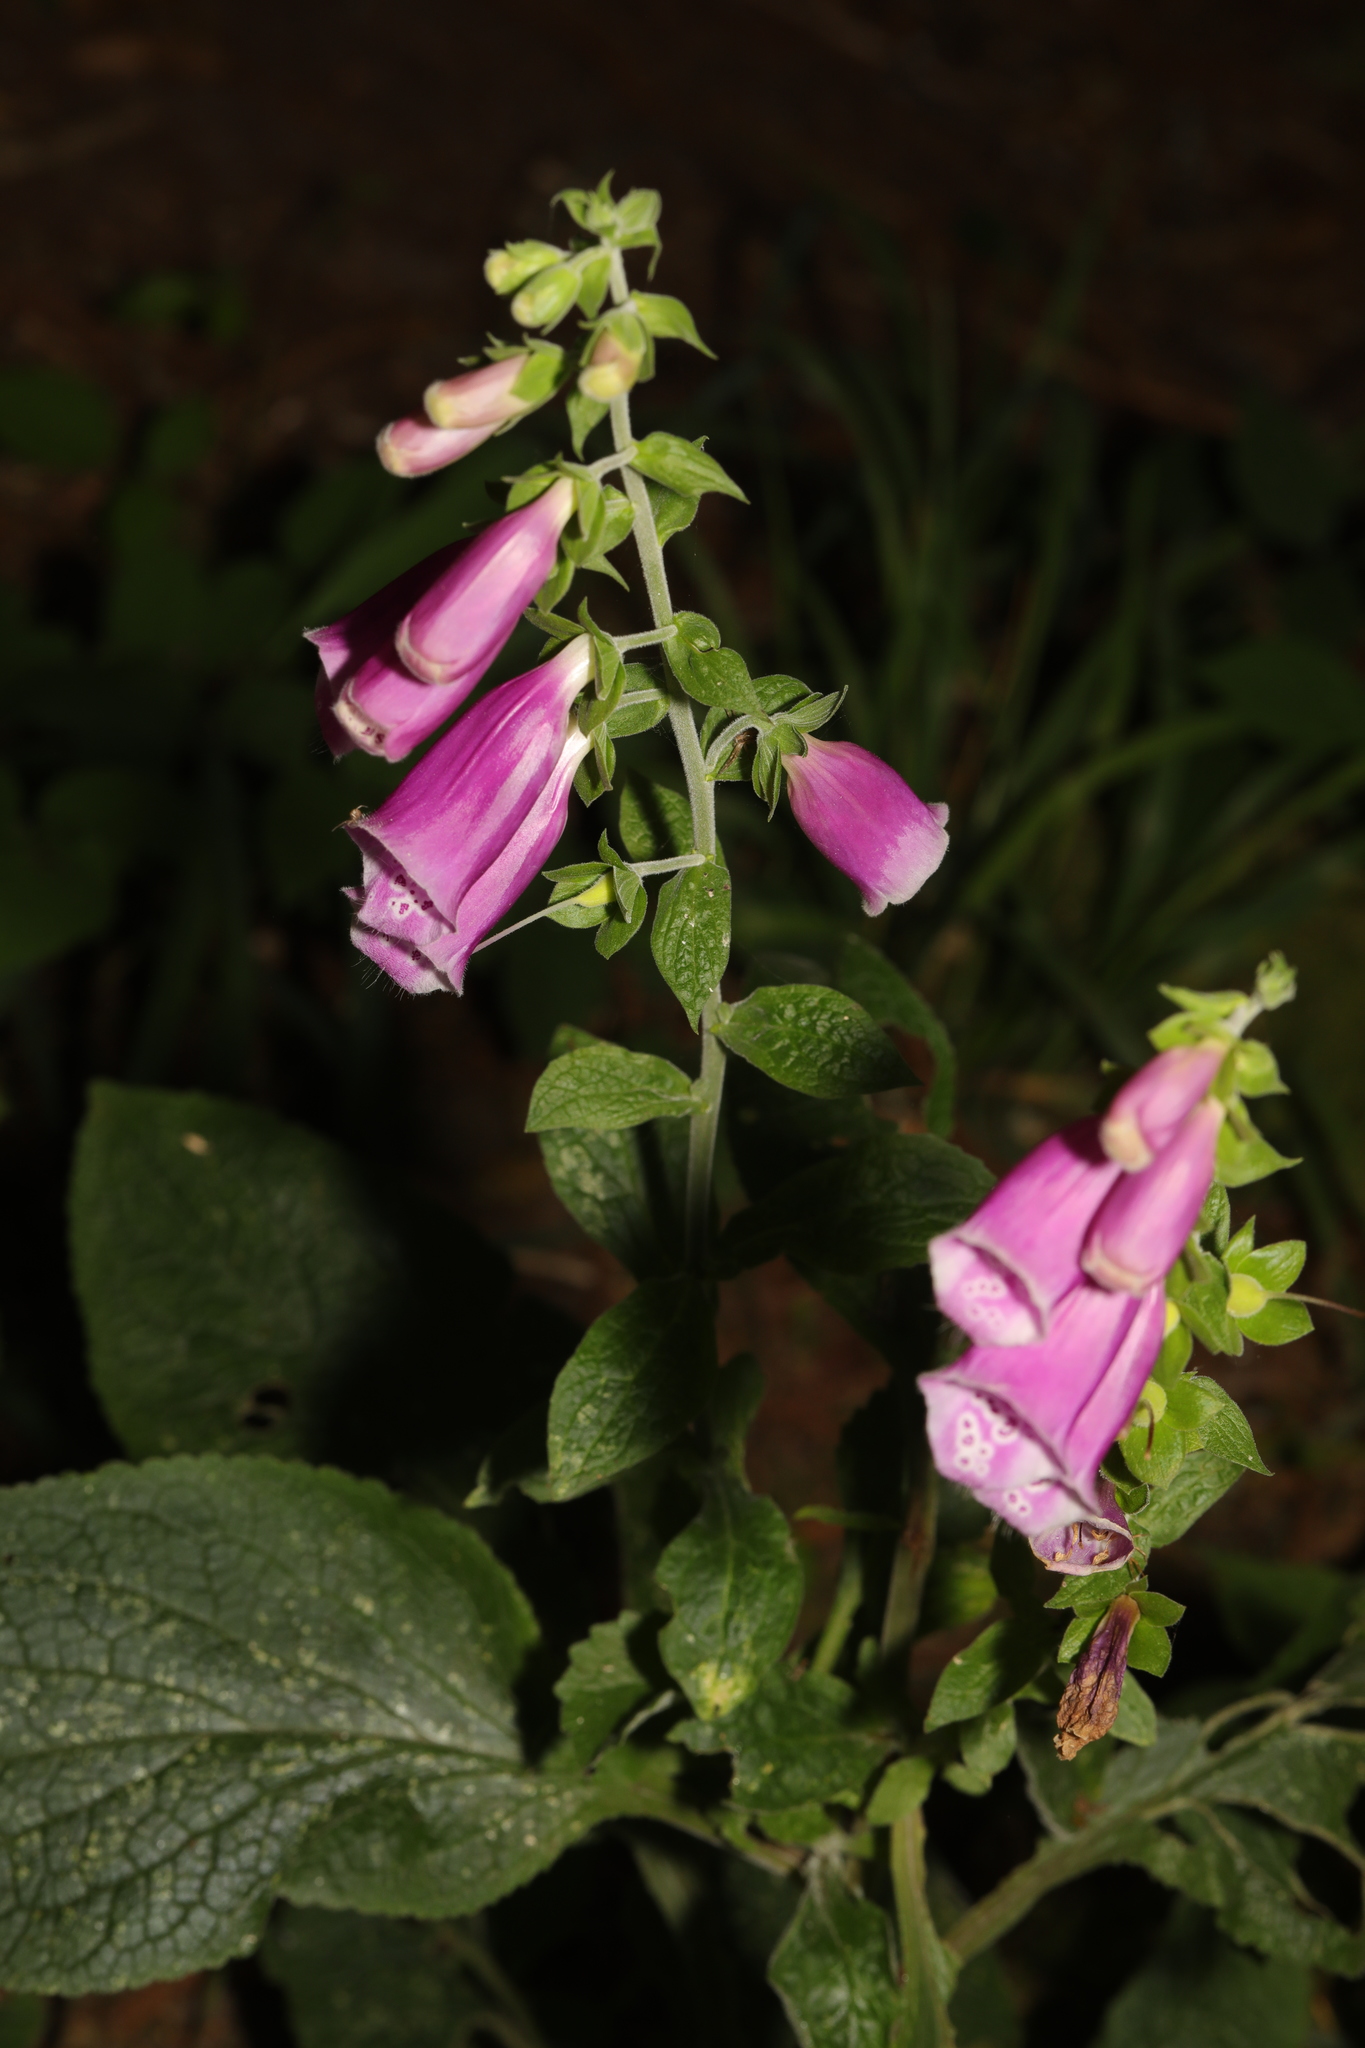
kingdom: Plantae
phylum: Tracheophyta
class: Magnoliopsida
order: Lamiales
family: Plantaginaceae
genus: Digitalis
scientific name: Digitalis purpurea
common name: Foxglove
